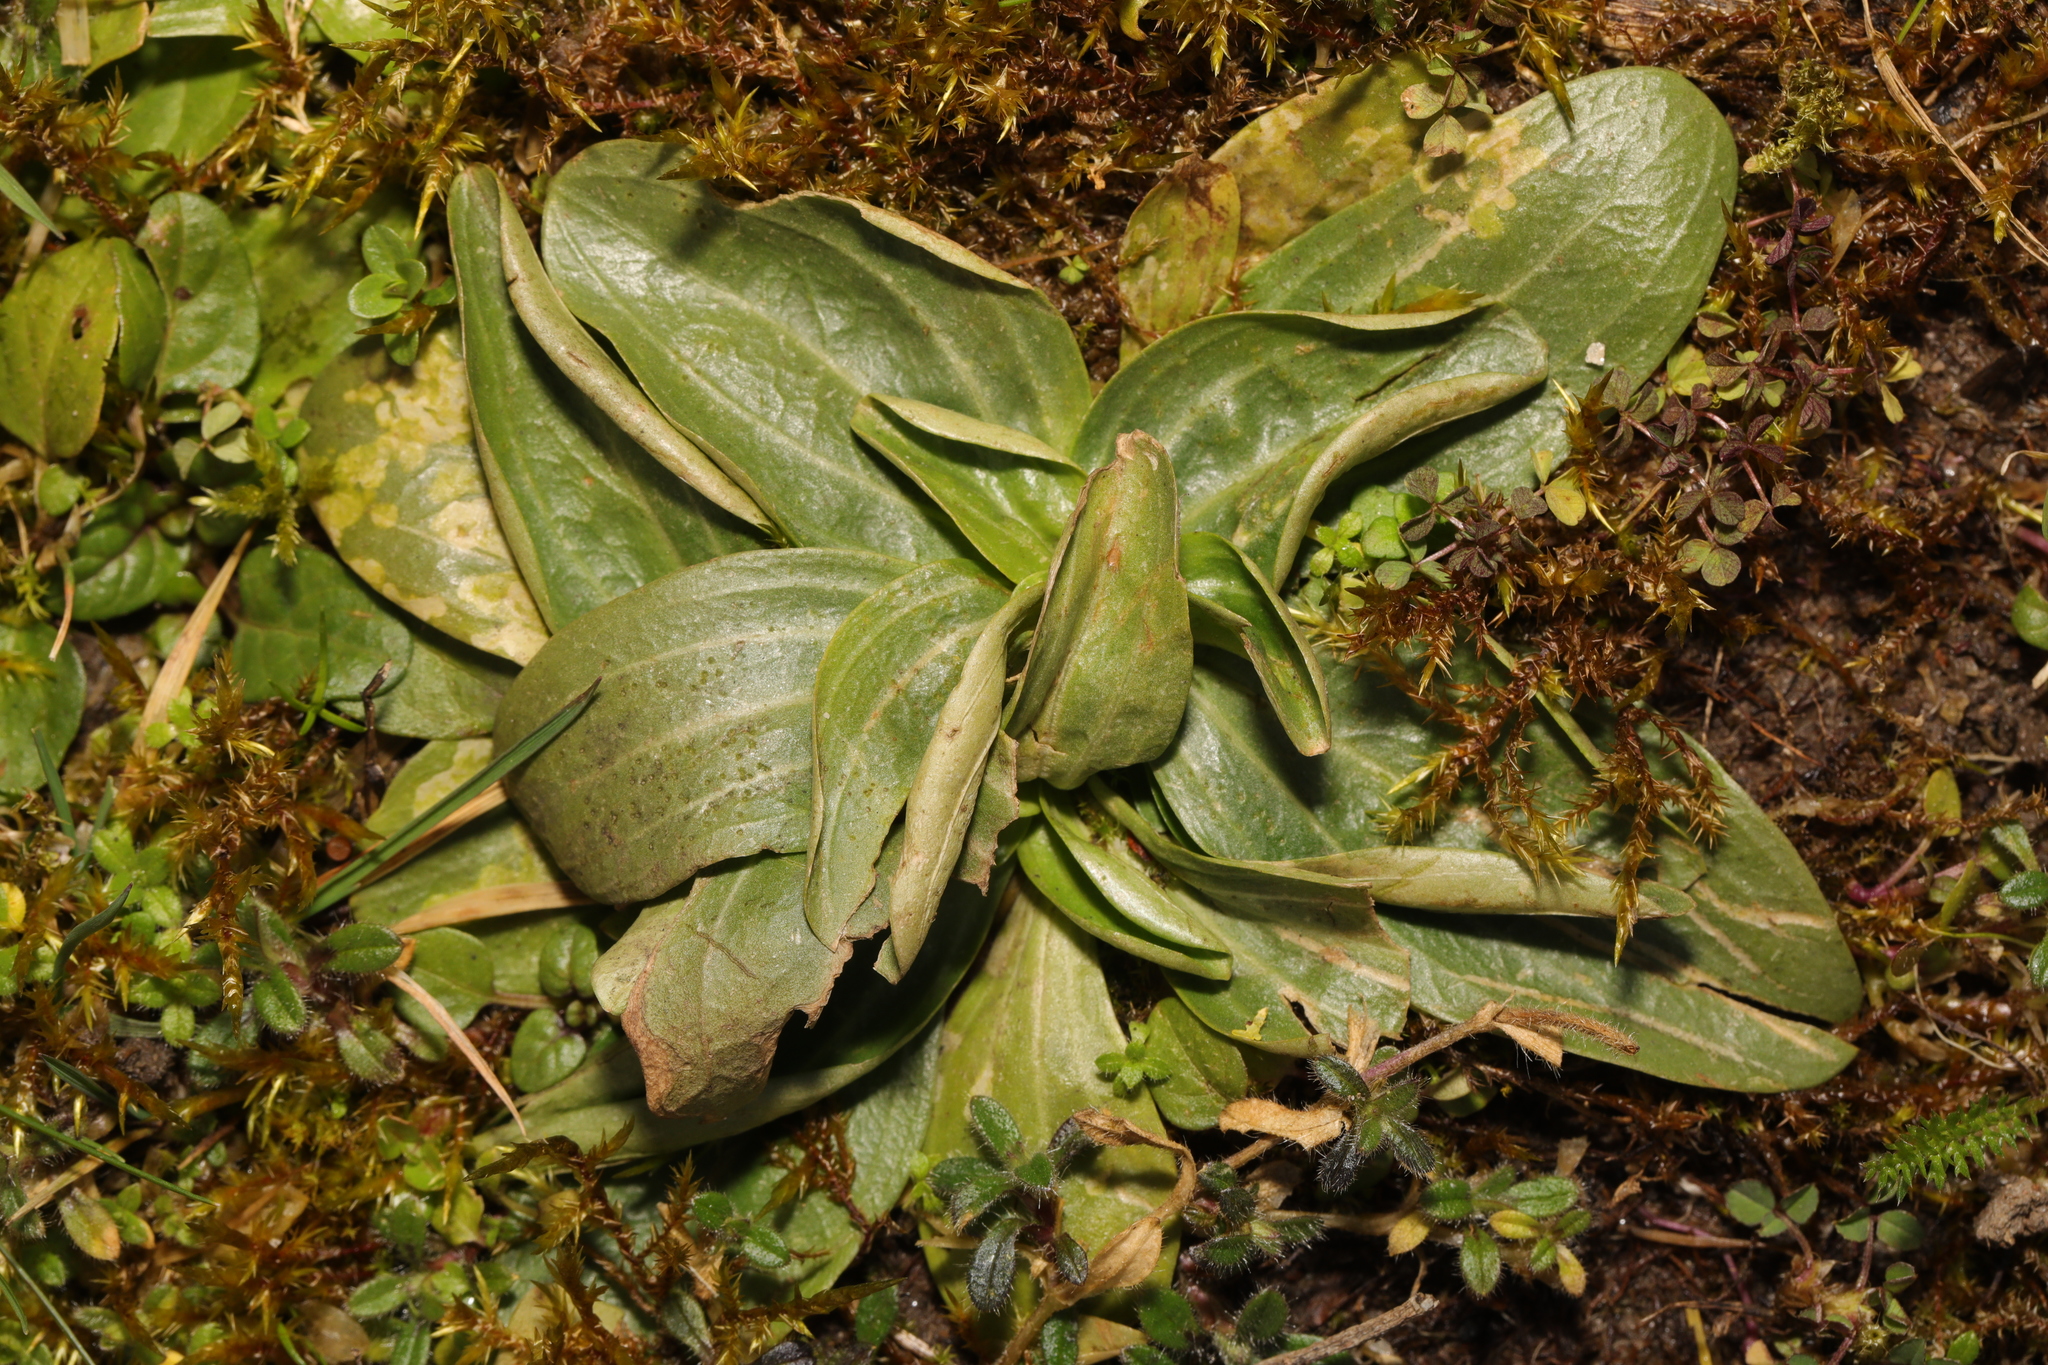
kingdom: Plantae
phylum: Tracheophyta
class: Magnoliopsida
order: Gentianales
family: Gentianaceae
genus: Centaurium
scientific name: Centaurium erythraea
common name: Common centaury
